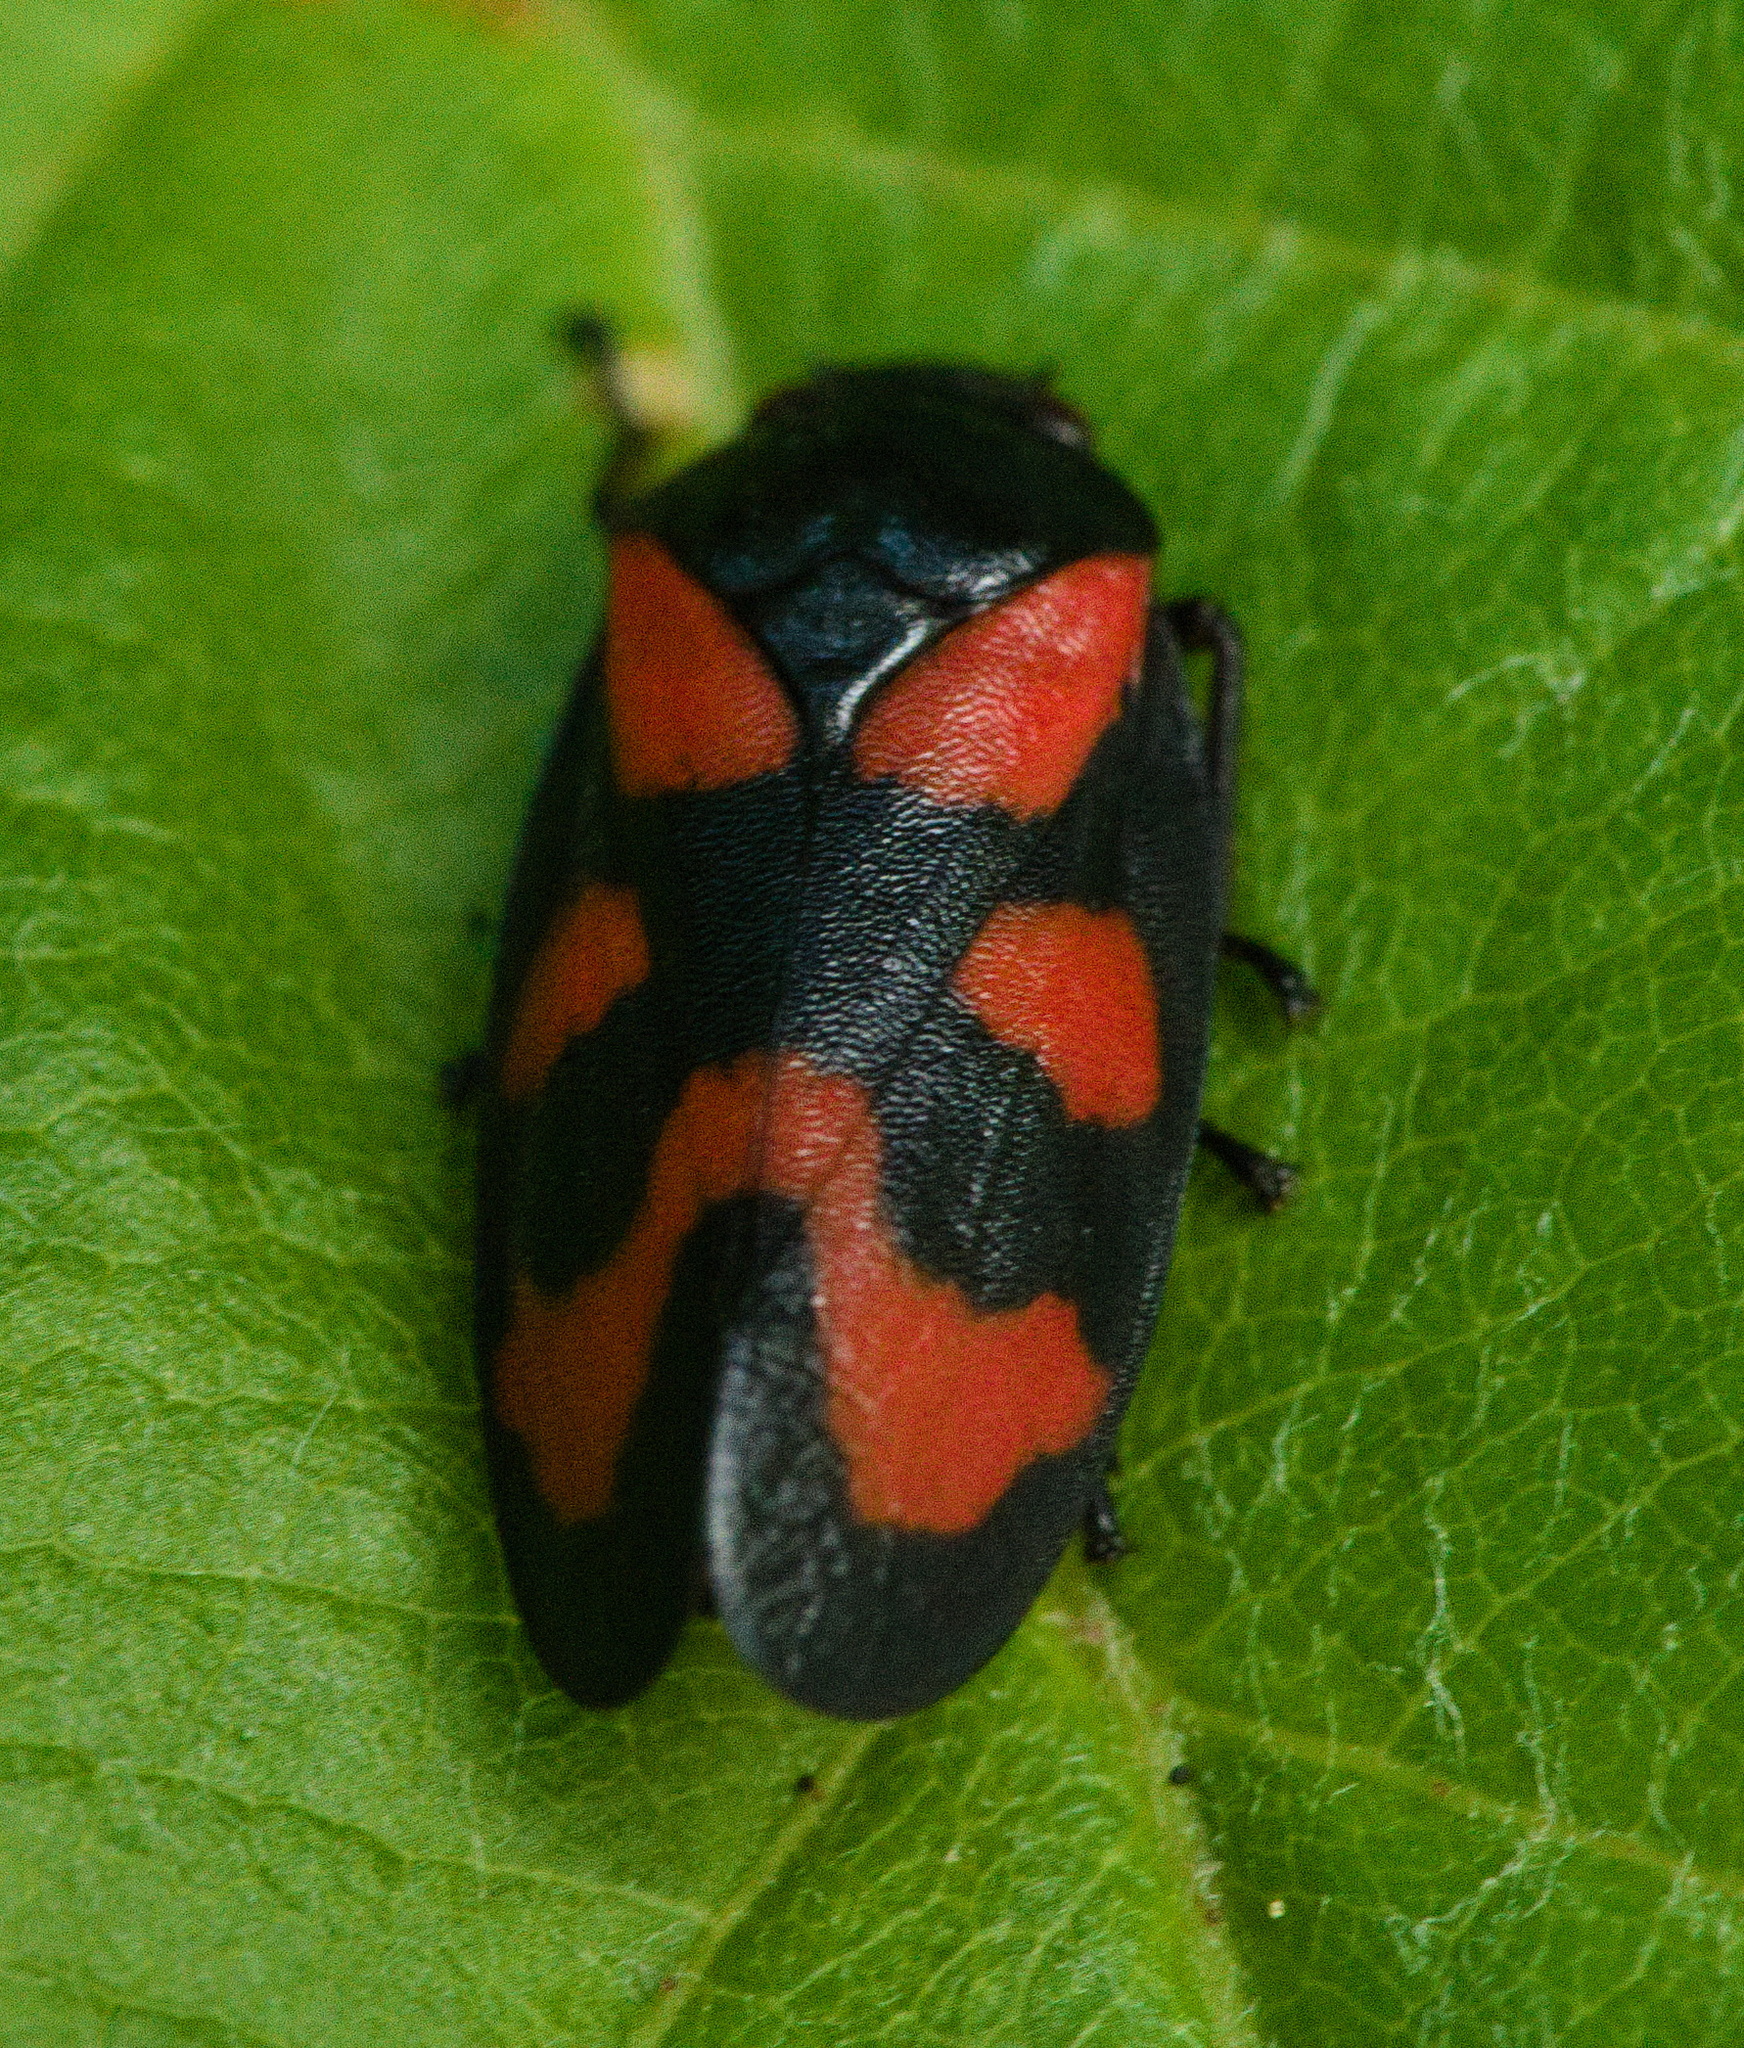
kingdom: Animalia
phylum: Arthropoda
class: Insecta
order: Hemiptera
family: Cercopidae
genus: Cercopis
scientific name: Cercopis vulnerata
